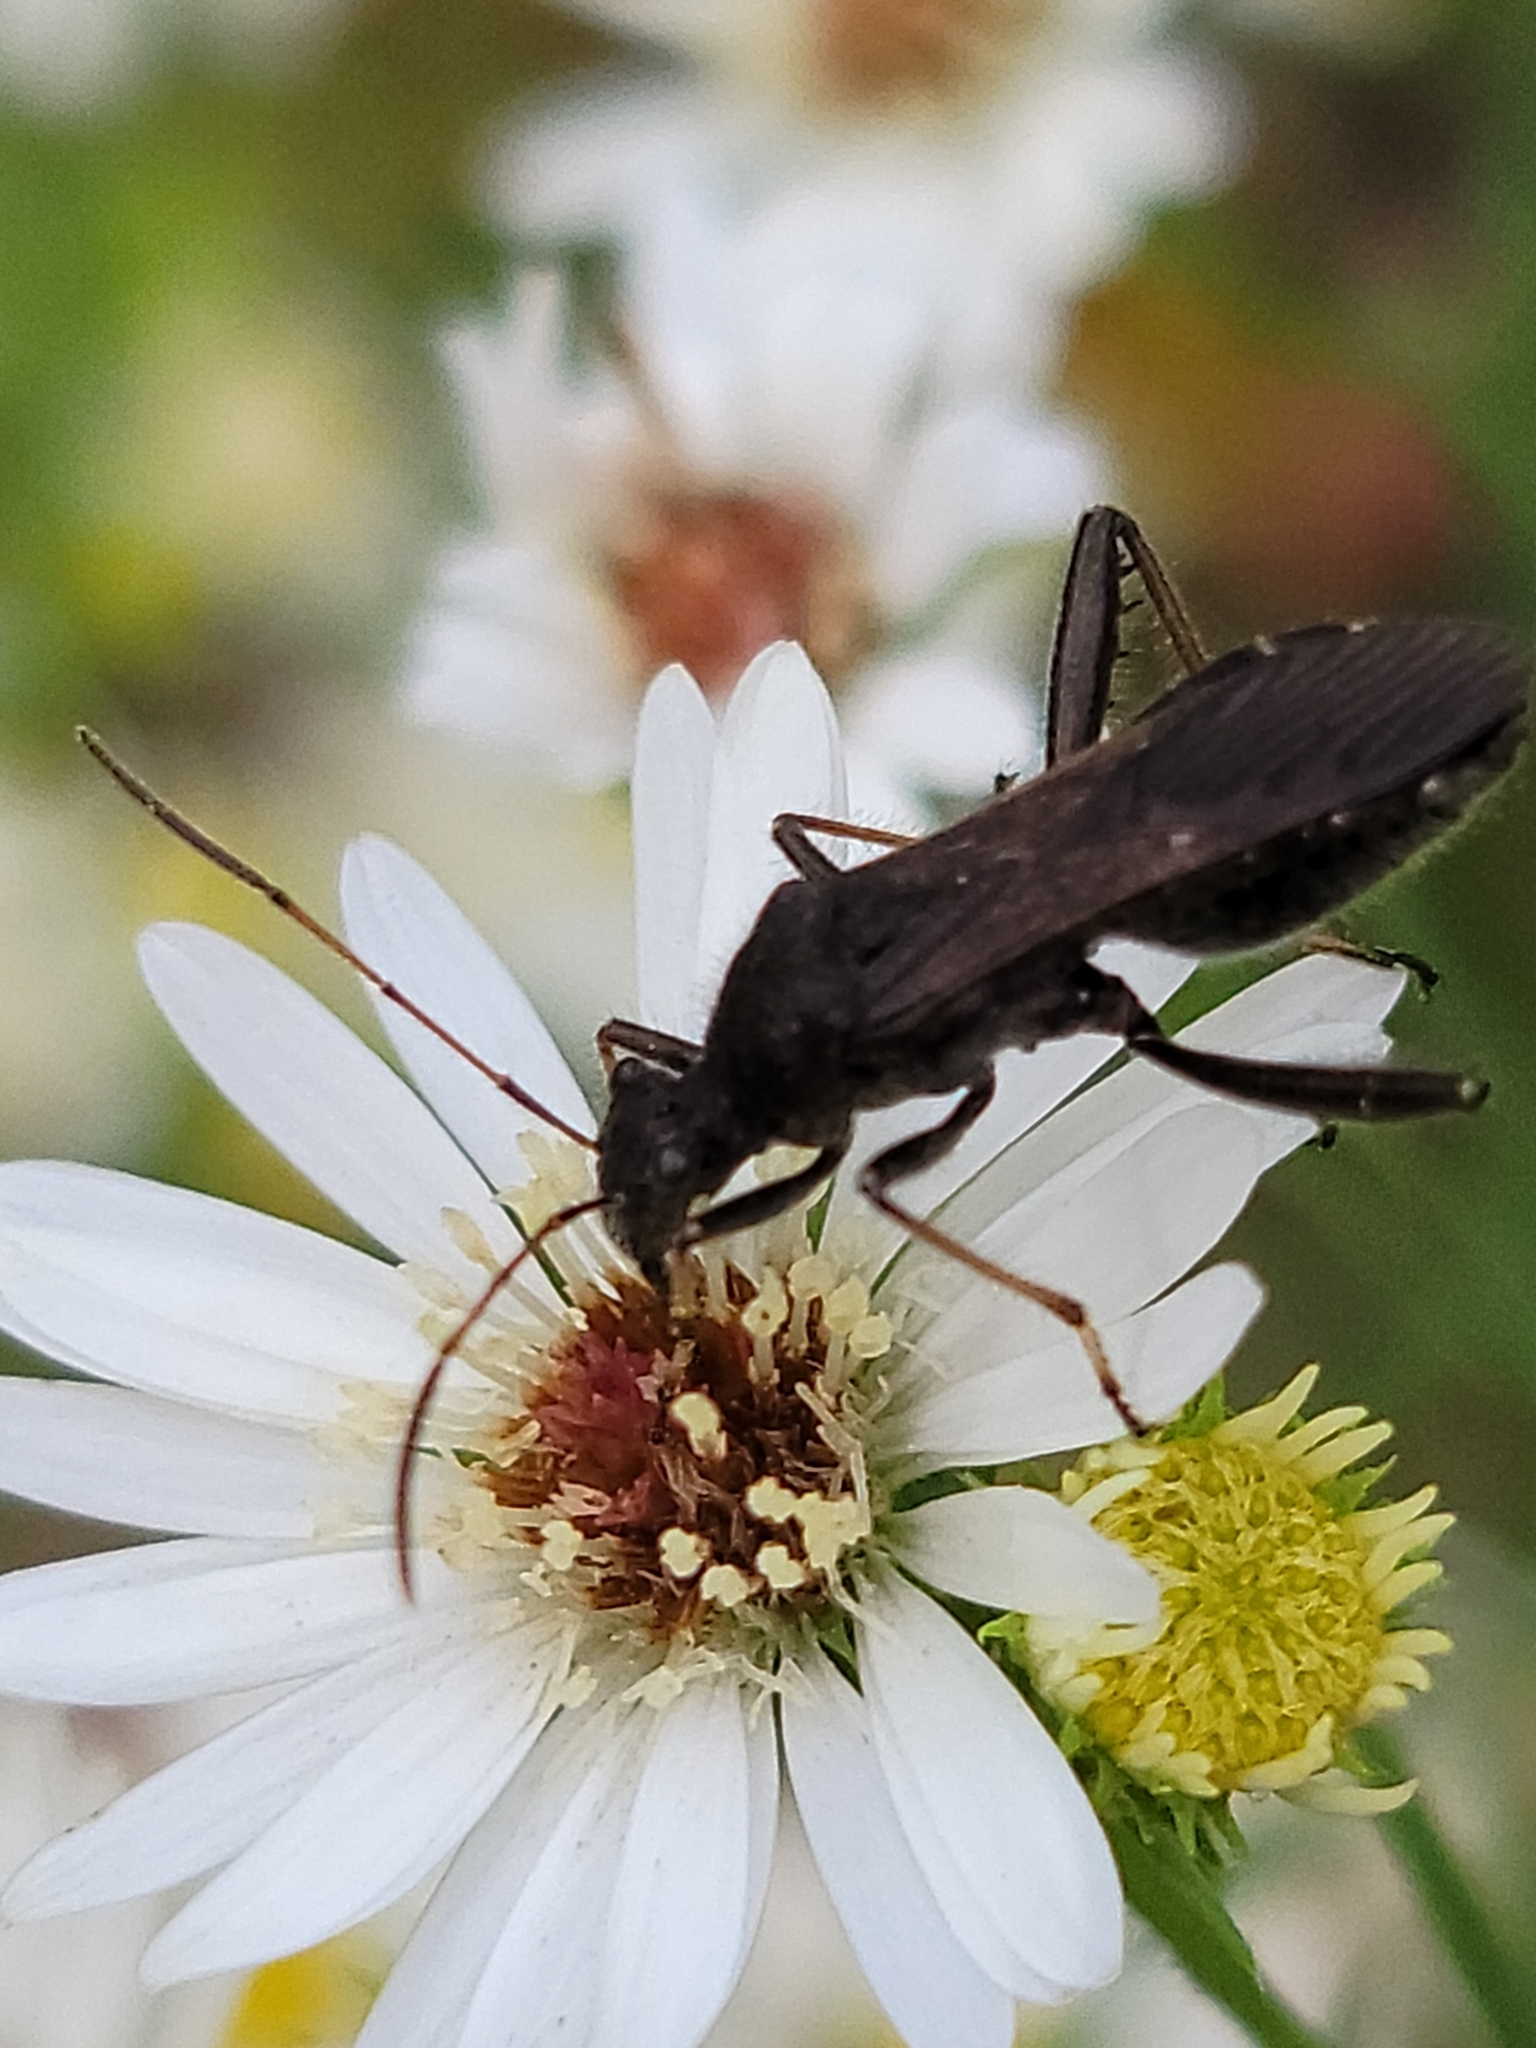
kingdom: Animalia
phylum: Arthropoda
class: Insecta
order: Hemiptera
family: Alydidae
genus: Alydus
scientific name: Alydus eurinus
